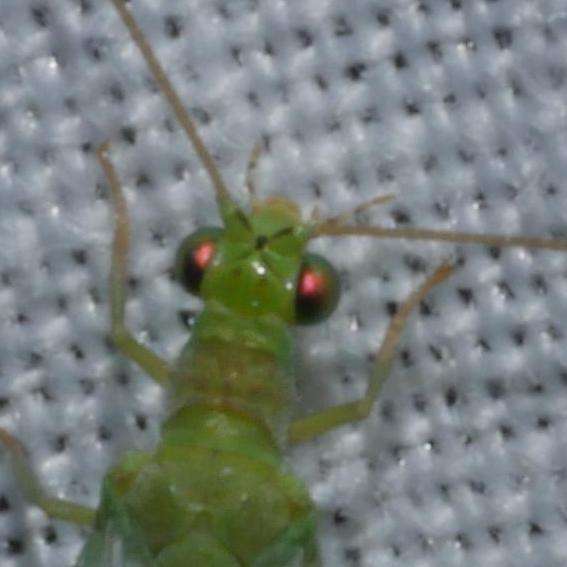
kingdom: Animalia
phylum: Arthropoda
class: Insecta
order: Neuroptera
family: Chrysopidae
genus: Mallada
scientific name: Mallada signatus
